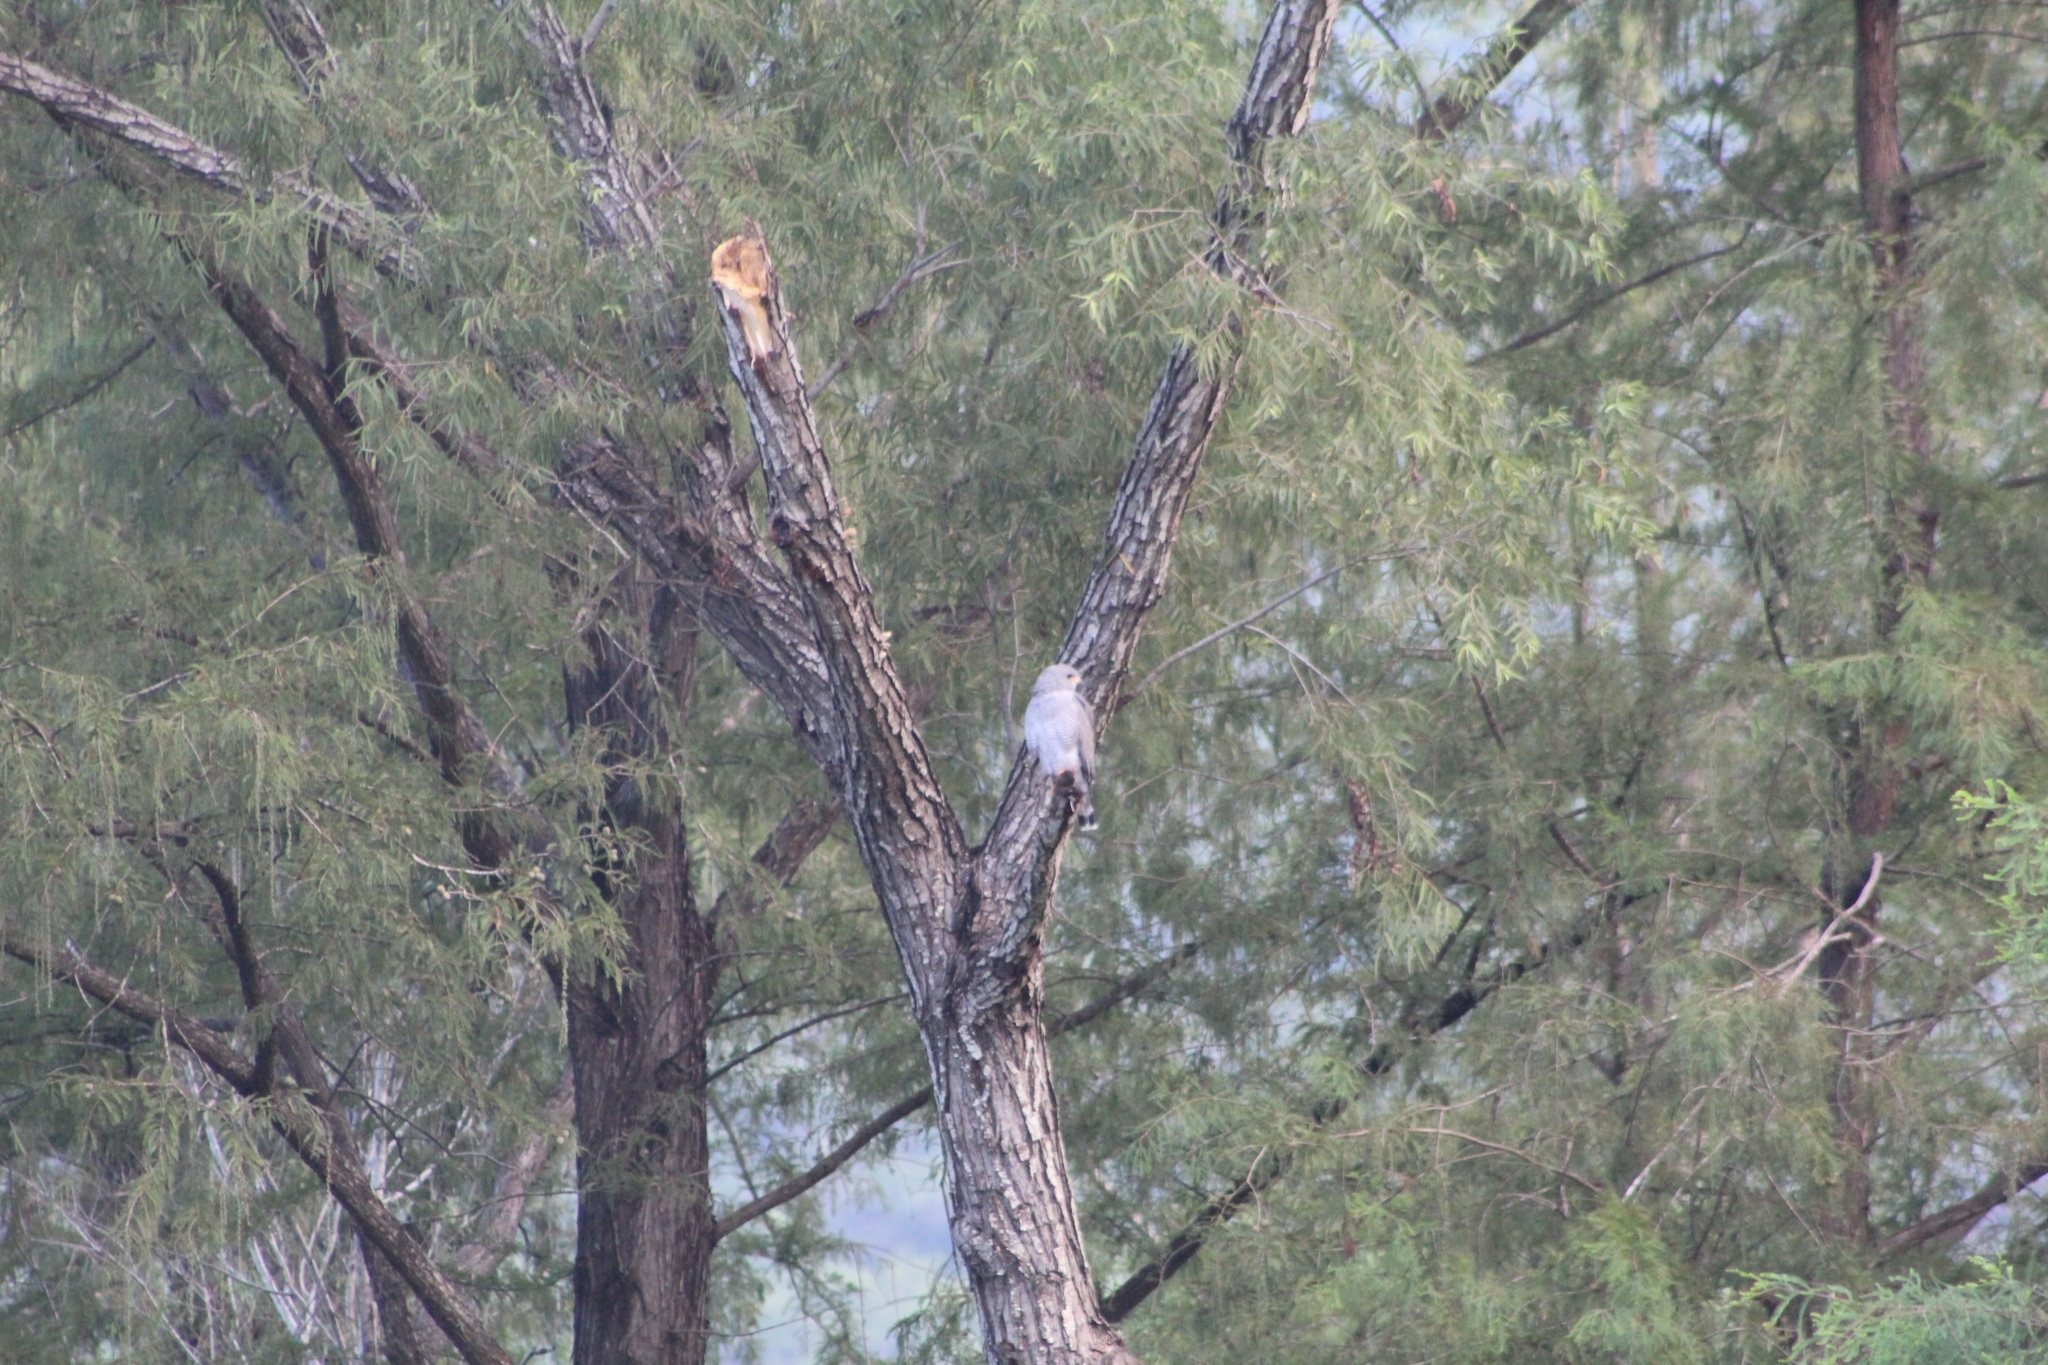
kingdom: Animalia
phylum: Chordata
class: Aves
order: Accipitriformes
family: Accipitridae
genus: Buteo
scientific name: Buteo nitidus
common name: Grey-lined hawk
